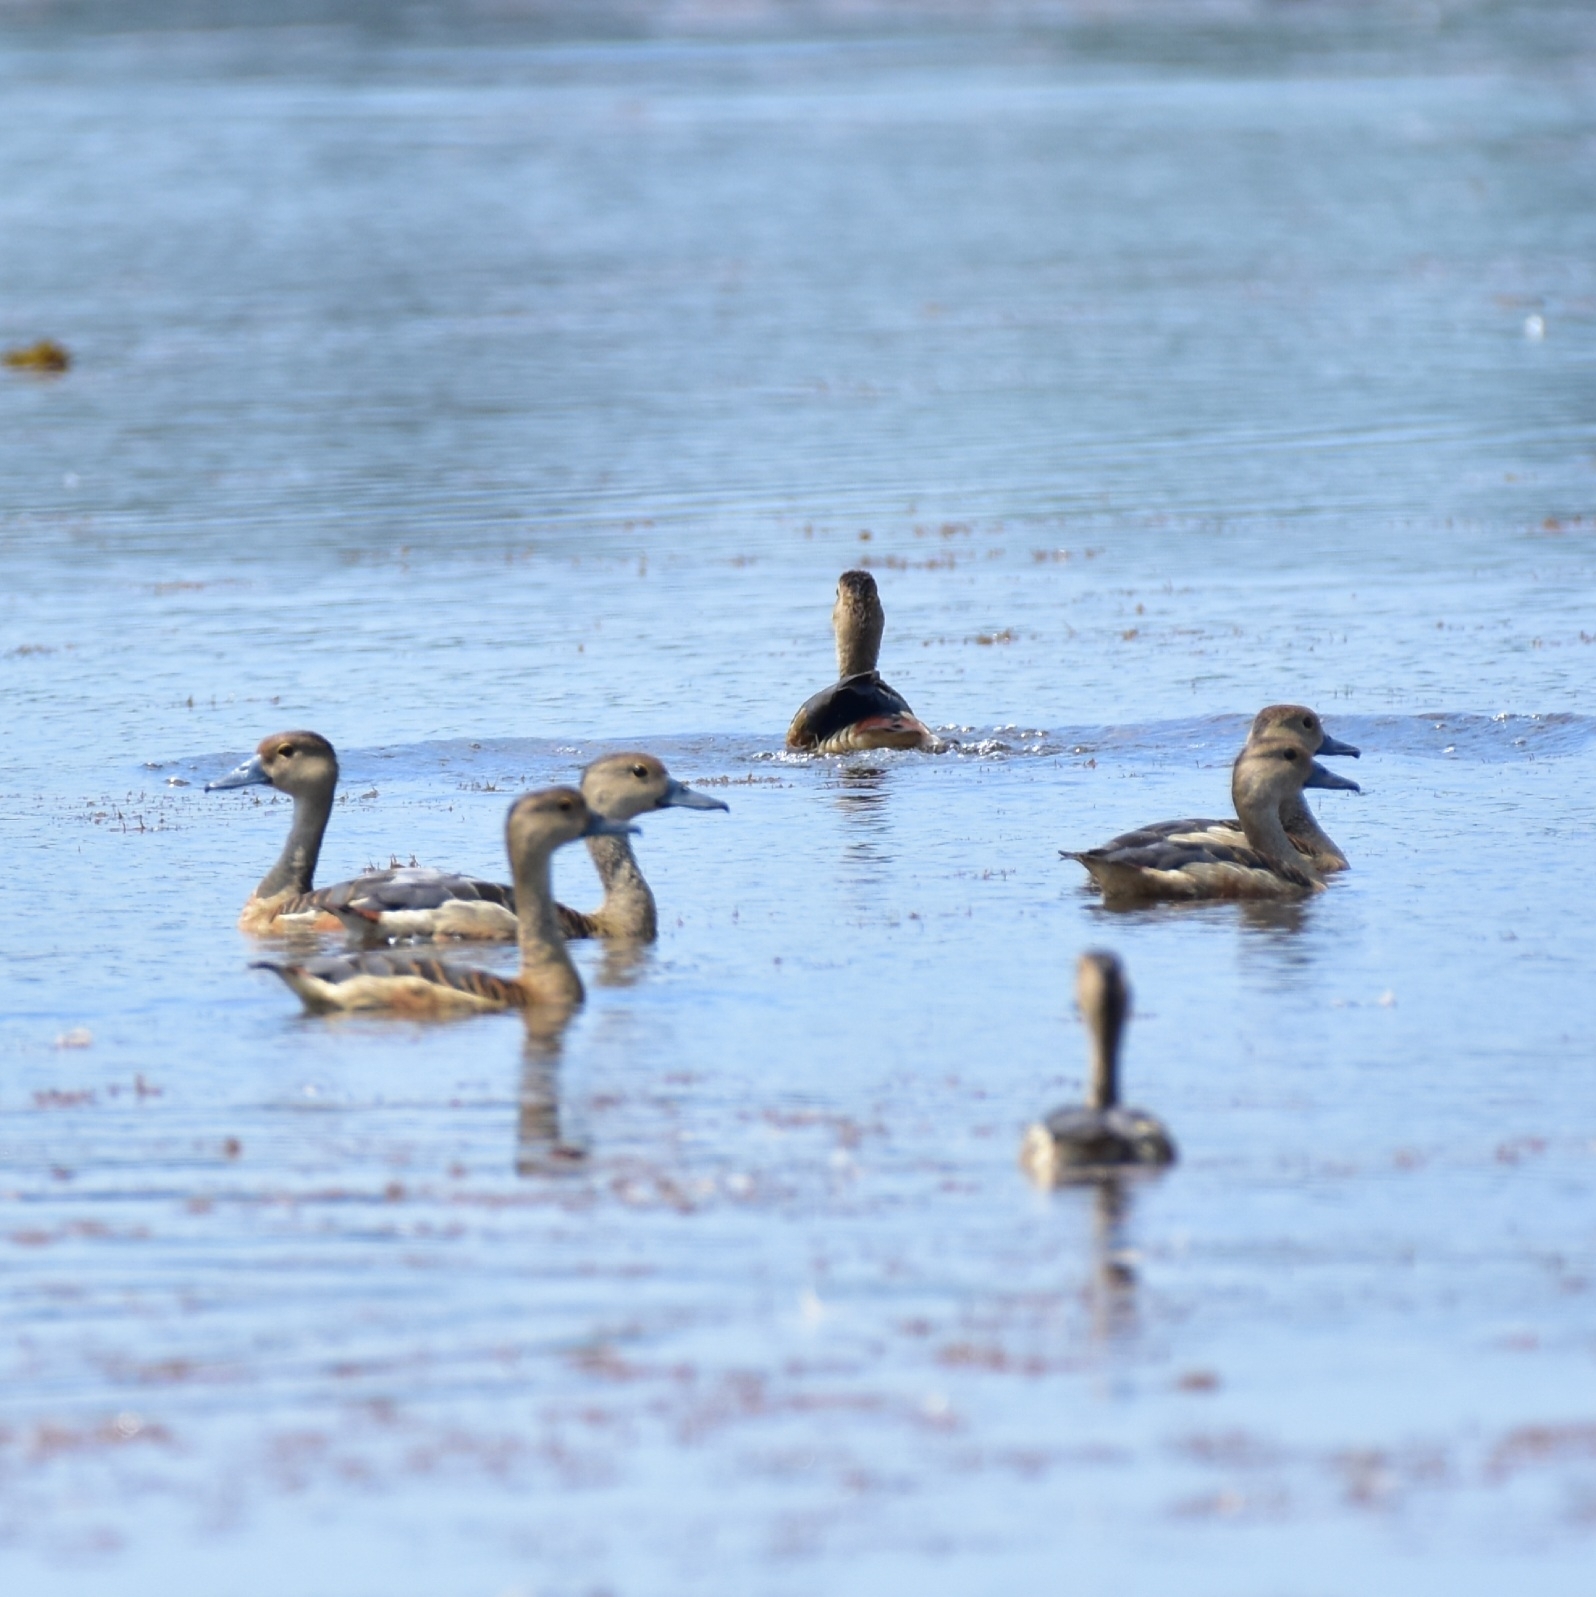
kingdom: Animalia
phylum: Chordata
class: Aves
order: Anseriformes
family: Anatidae
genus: Dendrocygna
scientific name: Dendrocygna javanica
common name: Lesser whistling-duck
